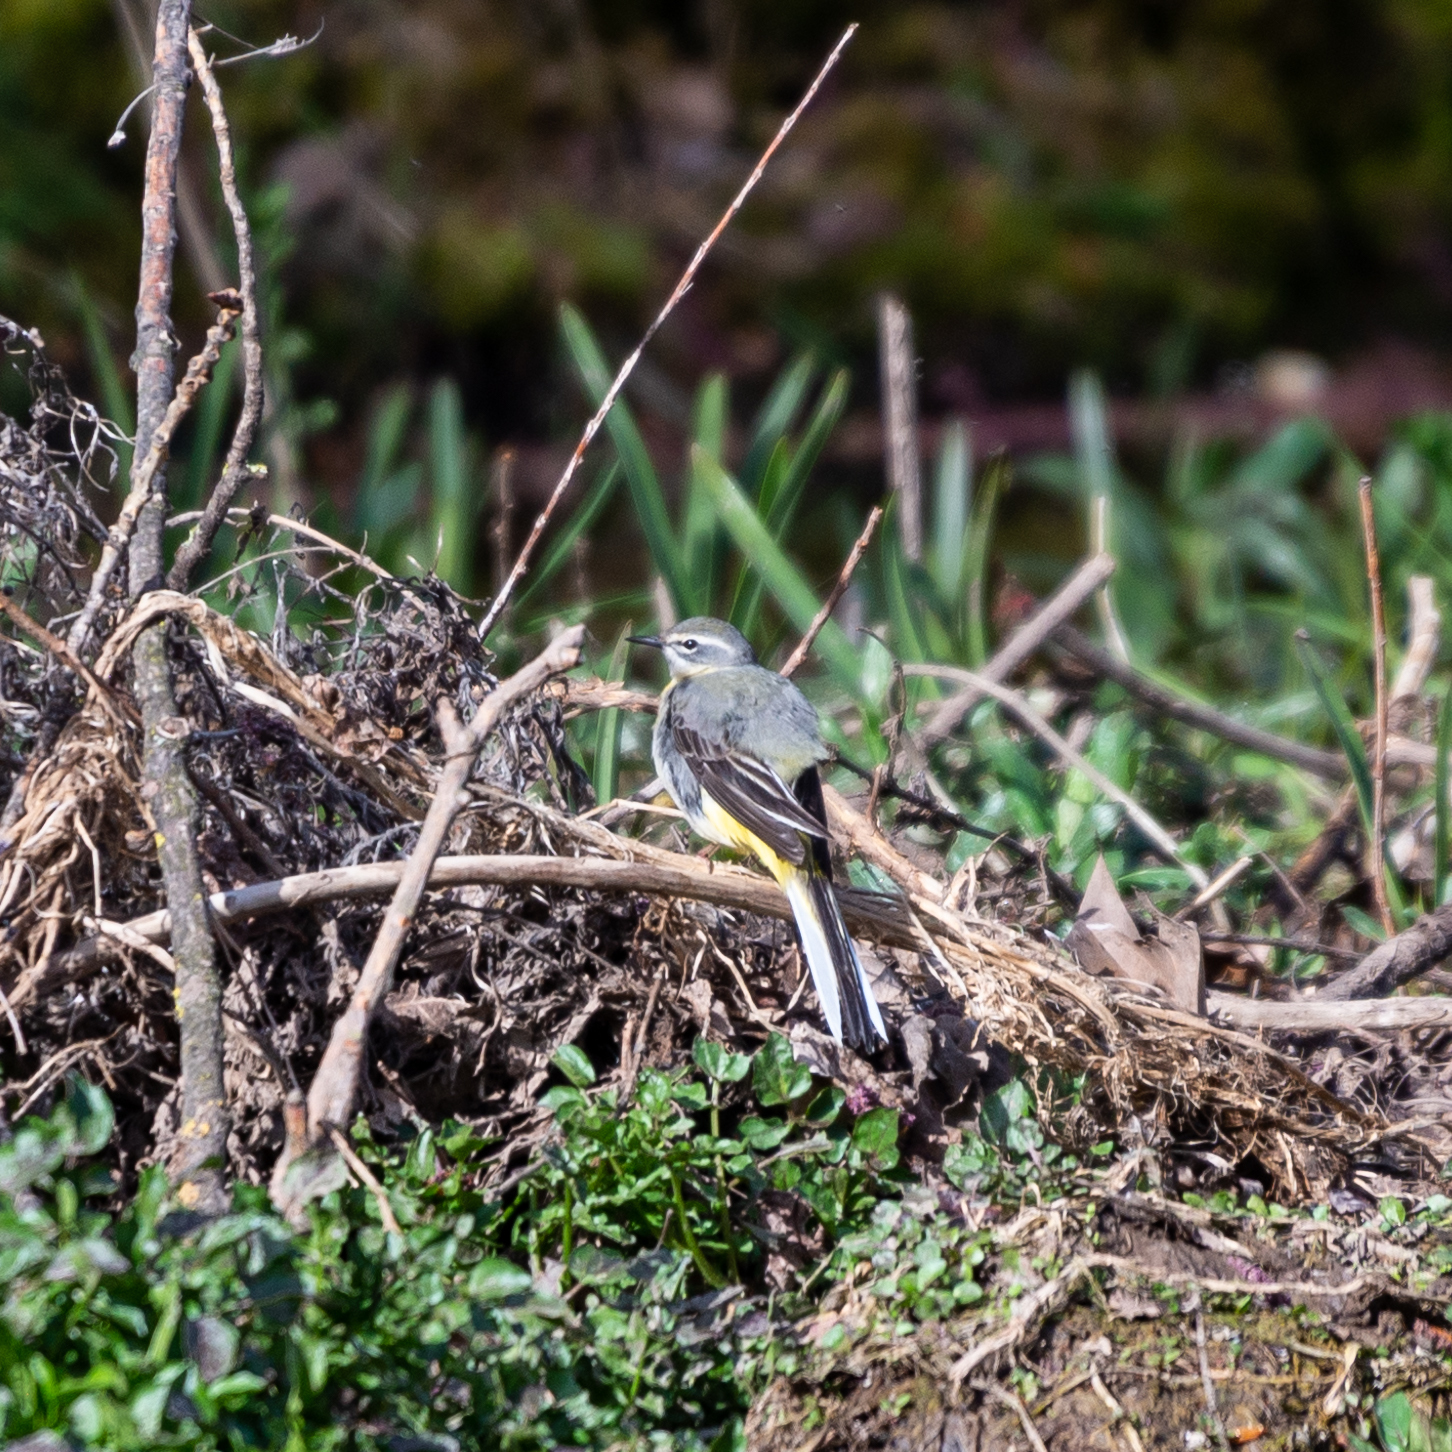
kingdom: Animalia
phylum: Chordata
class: Aves
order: Passeriformes
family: Motacillidae
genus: Motacilla
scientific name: Motacilla cinerea
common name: Grey wagtail
